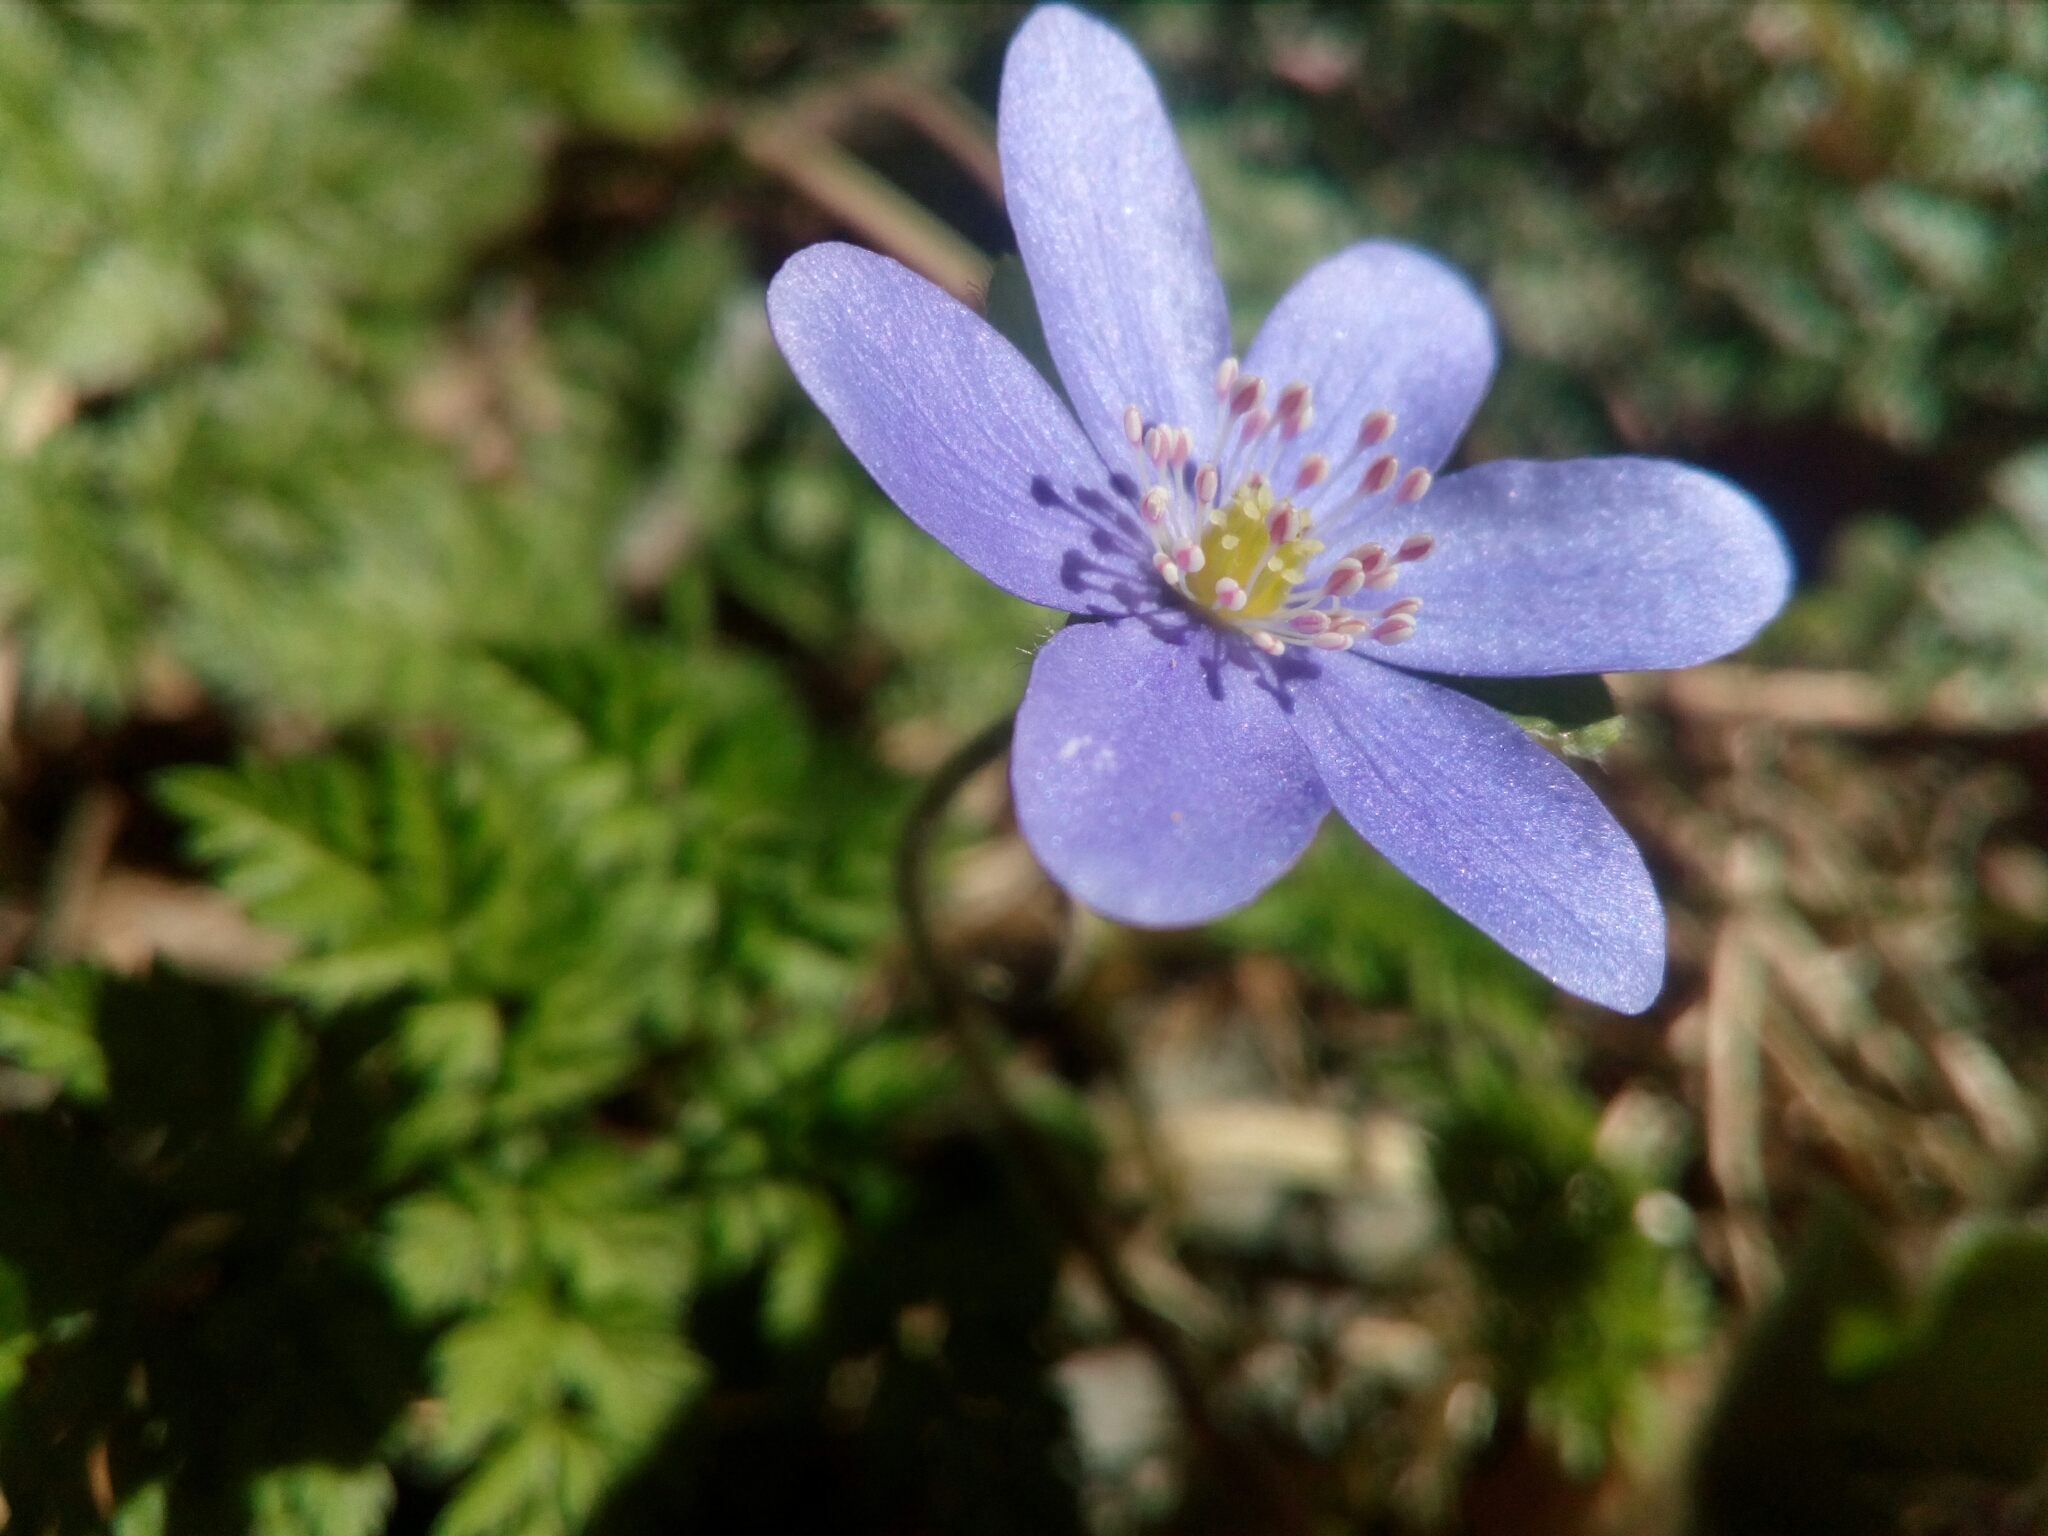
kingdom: Plantae
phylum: Tracheophyta
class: Magnoliopsida
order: Ranunculales
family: Ranunculaceae
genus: Hepatica
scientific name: Hepatica nobilis
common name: Liverleaf
